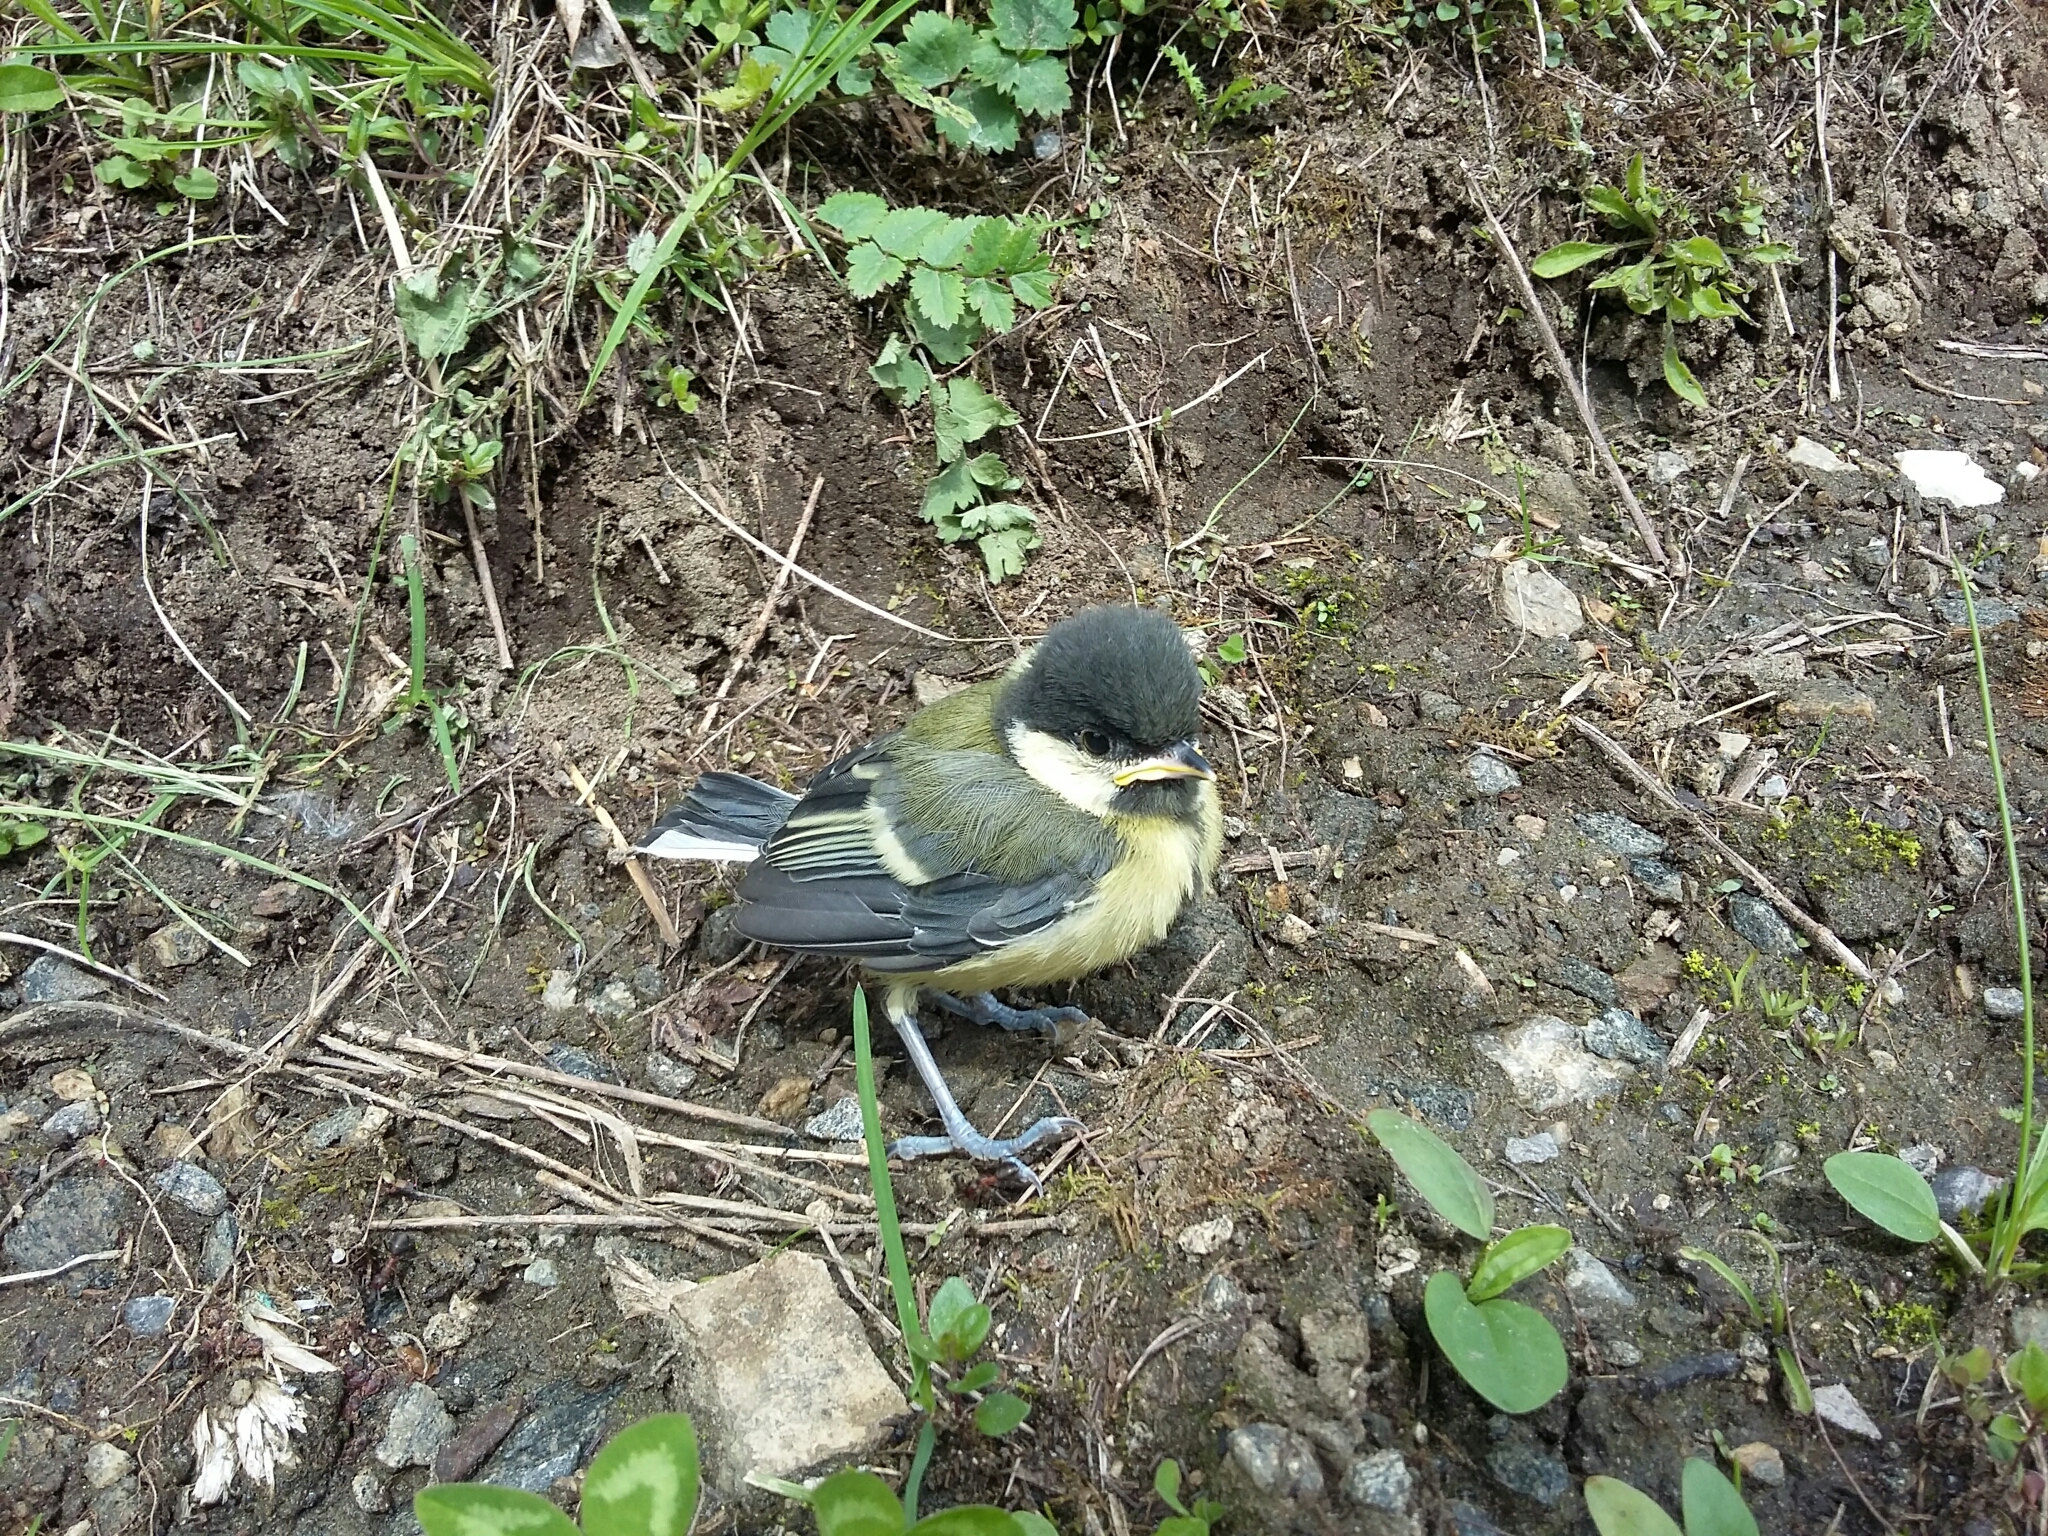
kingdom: Animalia
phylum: Chordata
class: Aves
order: Passeriformes
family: Paridae
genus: Parus
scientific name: Parus major
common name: Great tit
